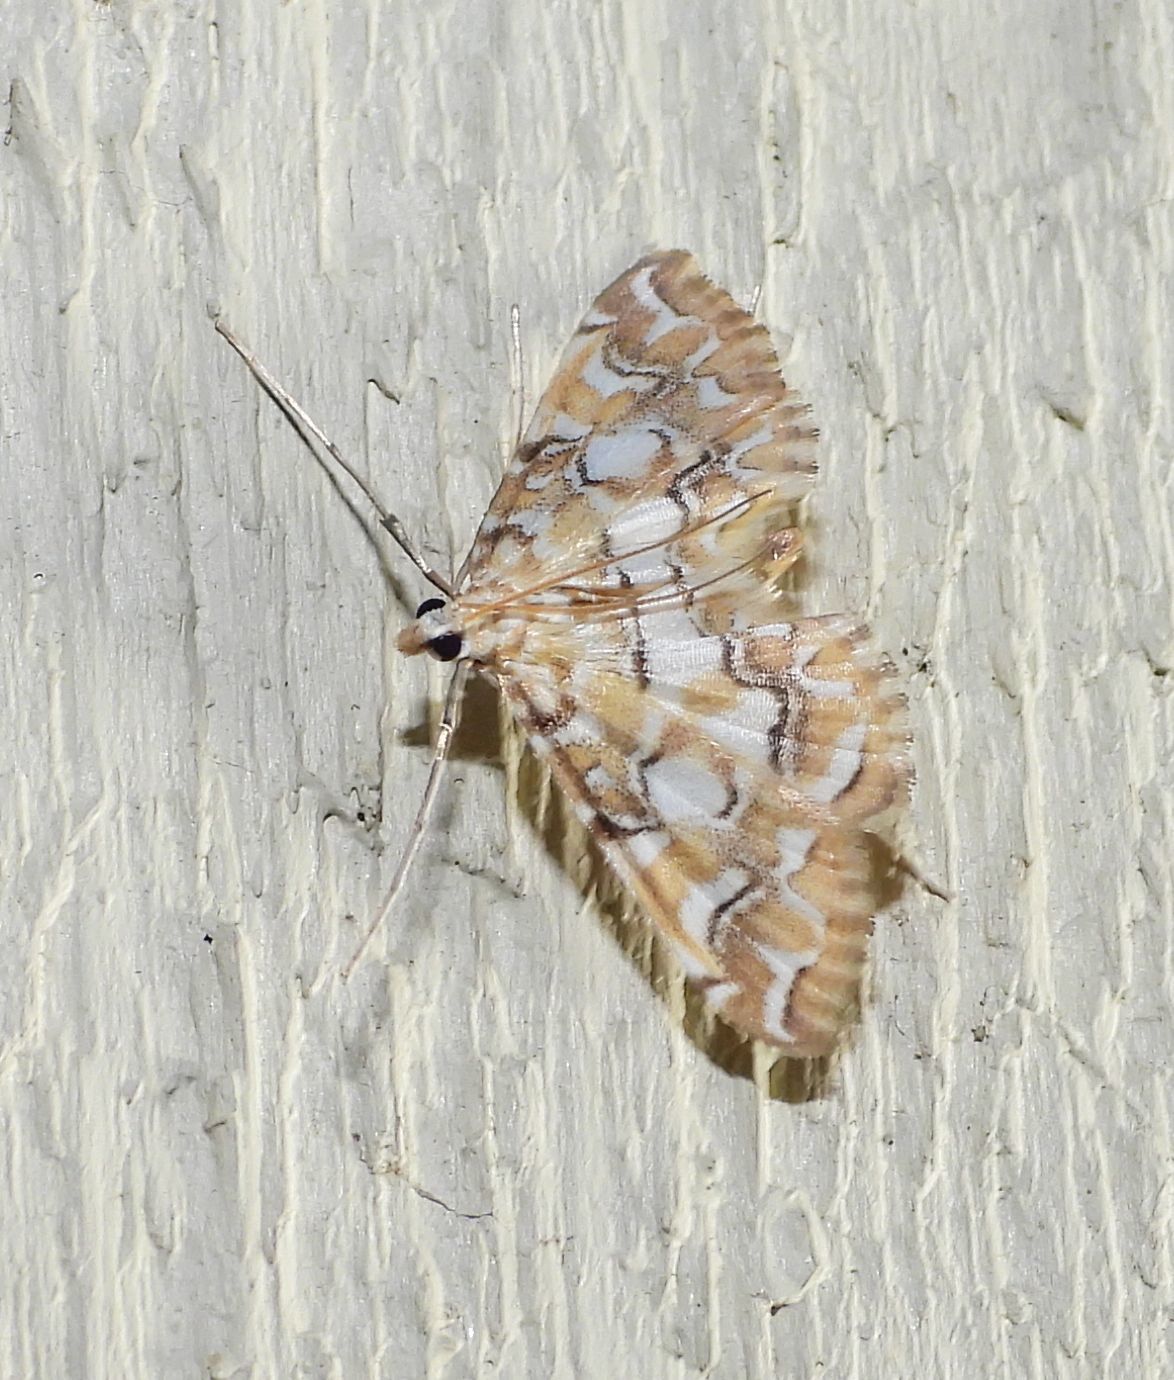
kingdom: Animalia
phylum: Arthropoda
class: Insecta
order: Lepidoptera
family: Crambidae
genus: Elophila
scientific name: Elophila icciusalis
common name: Pondside pyralid moth
